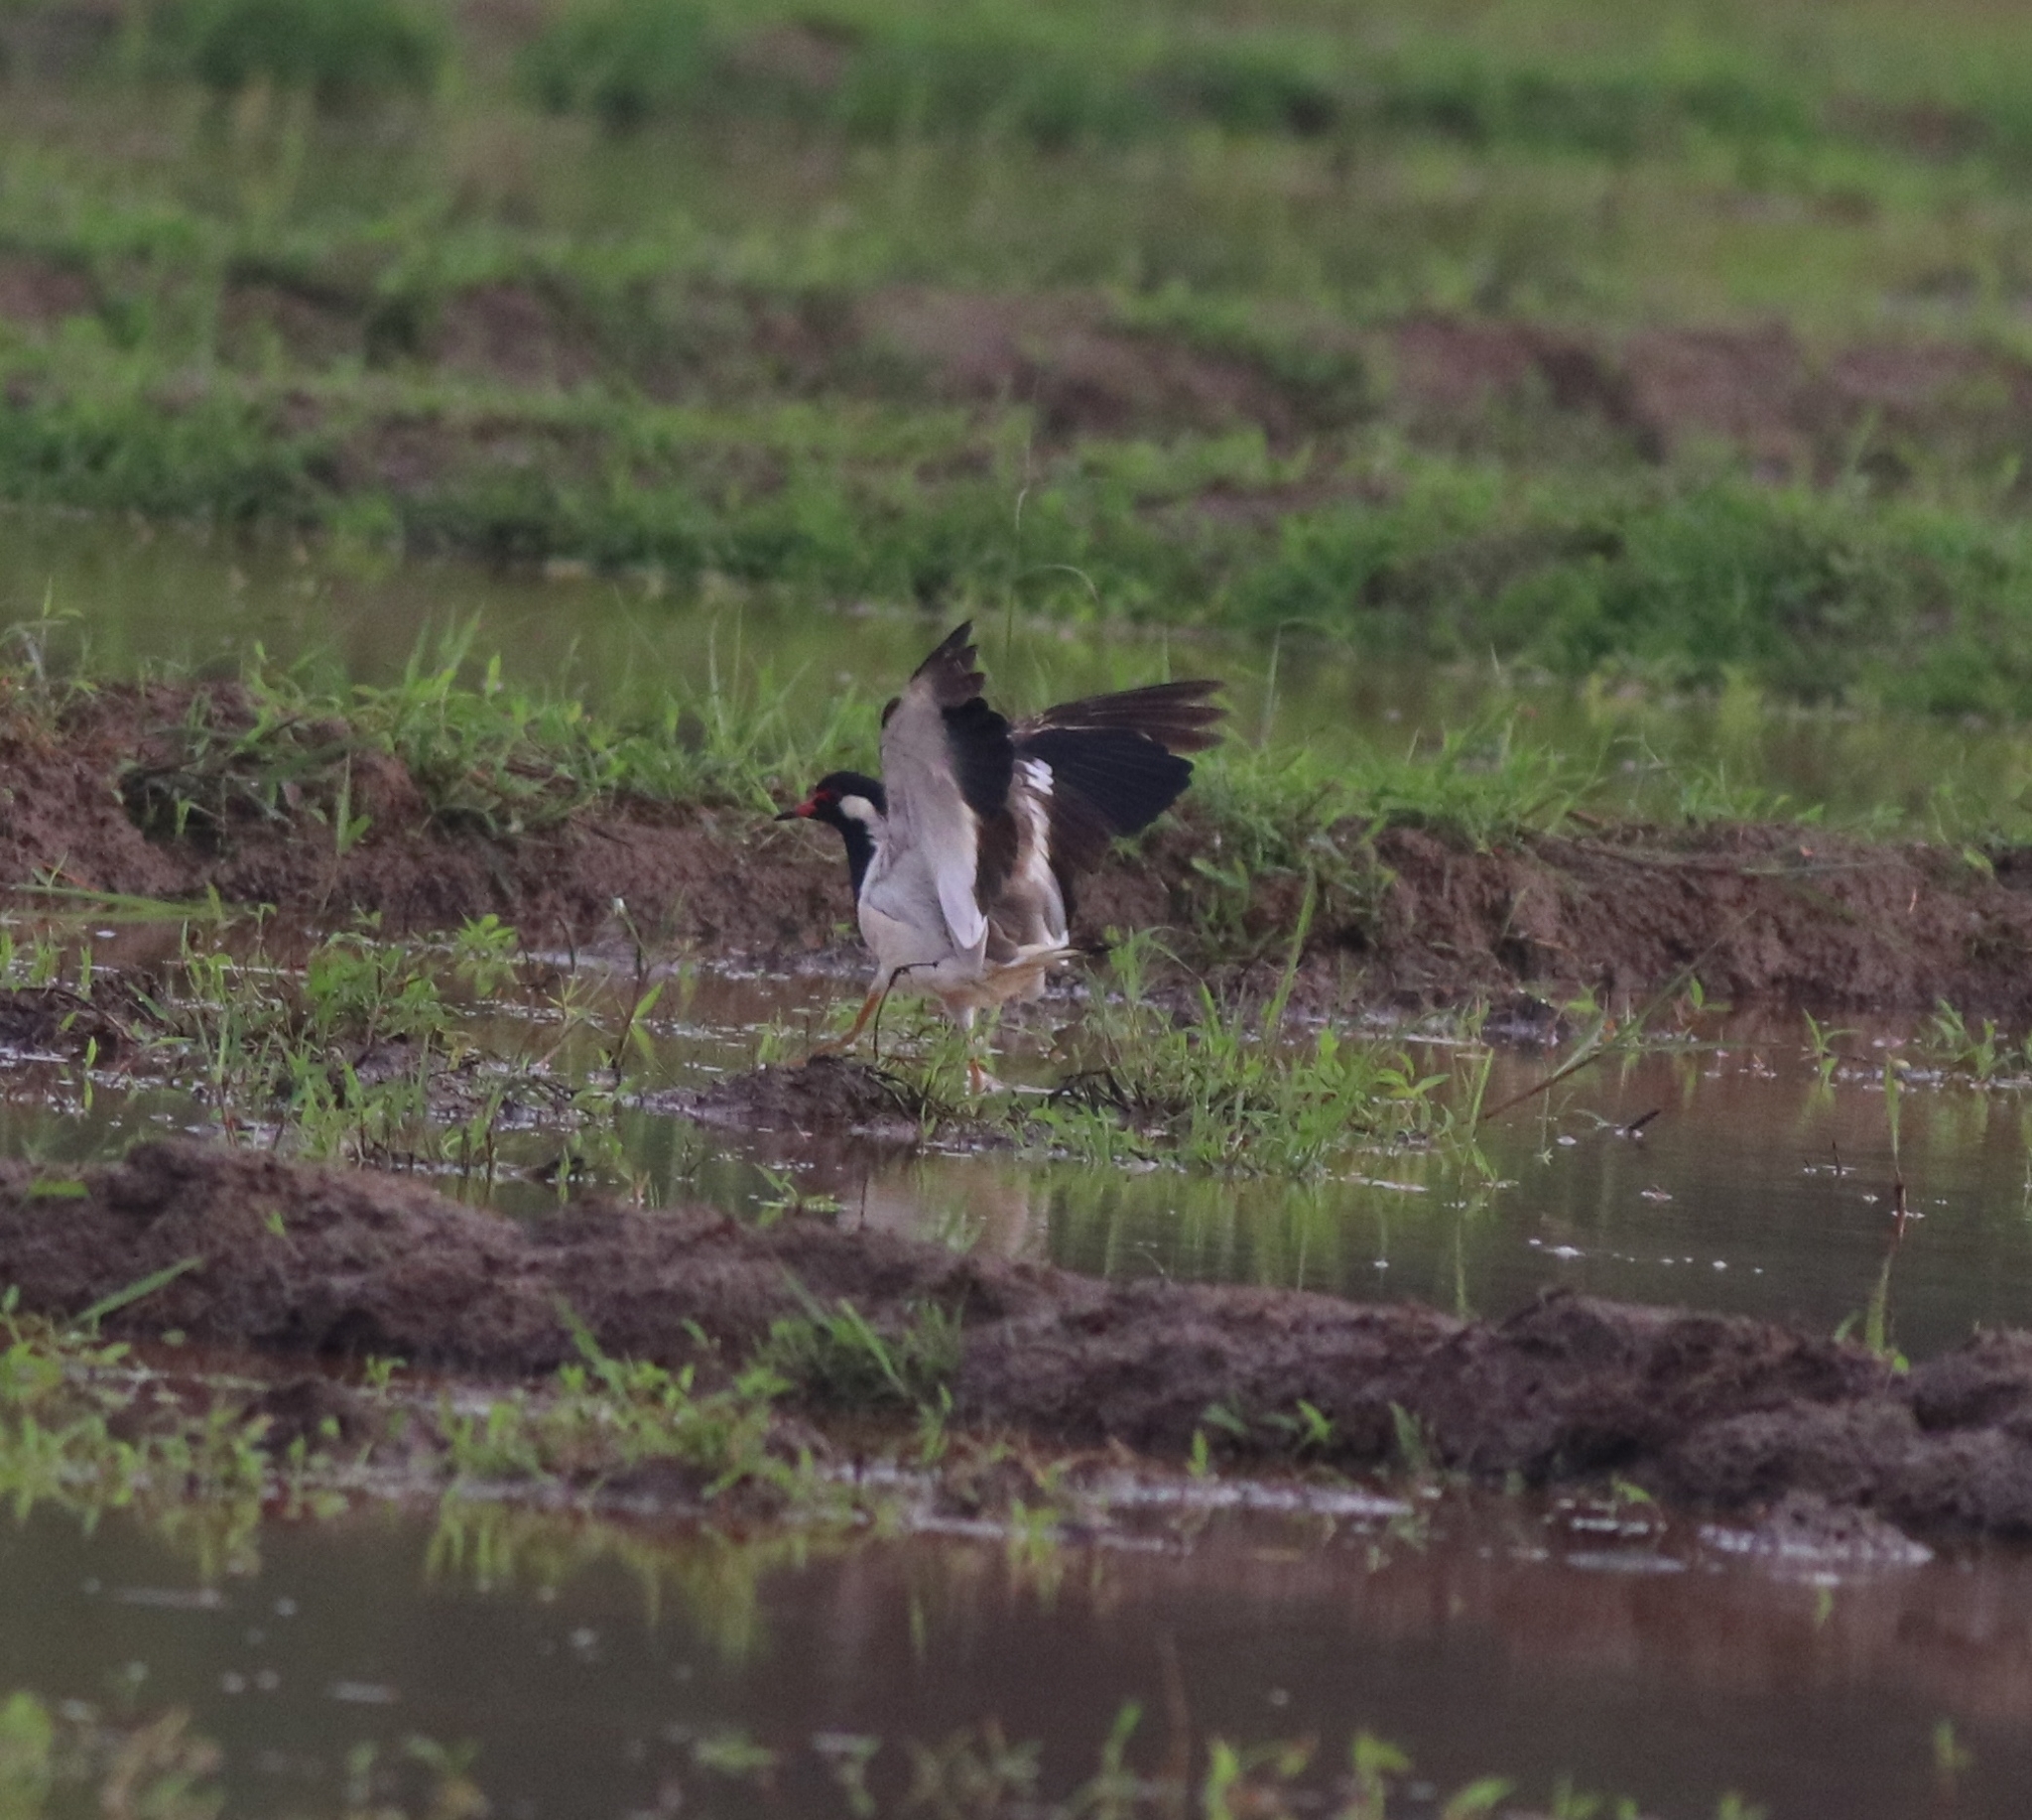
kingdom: Animalia
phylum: Chordata
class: Aves
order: Charadriiformes
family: Charadriidae
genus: Vanellus
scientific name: Vanellus indicus
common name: Red-wattled lapwing
